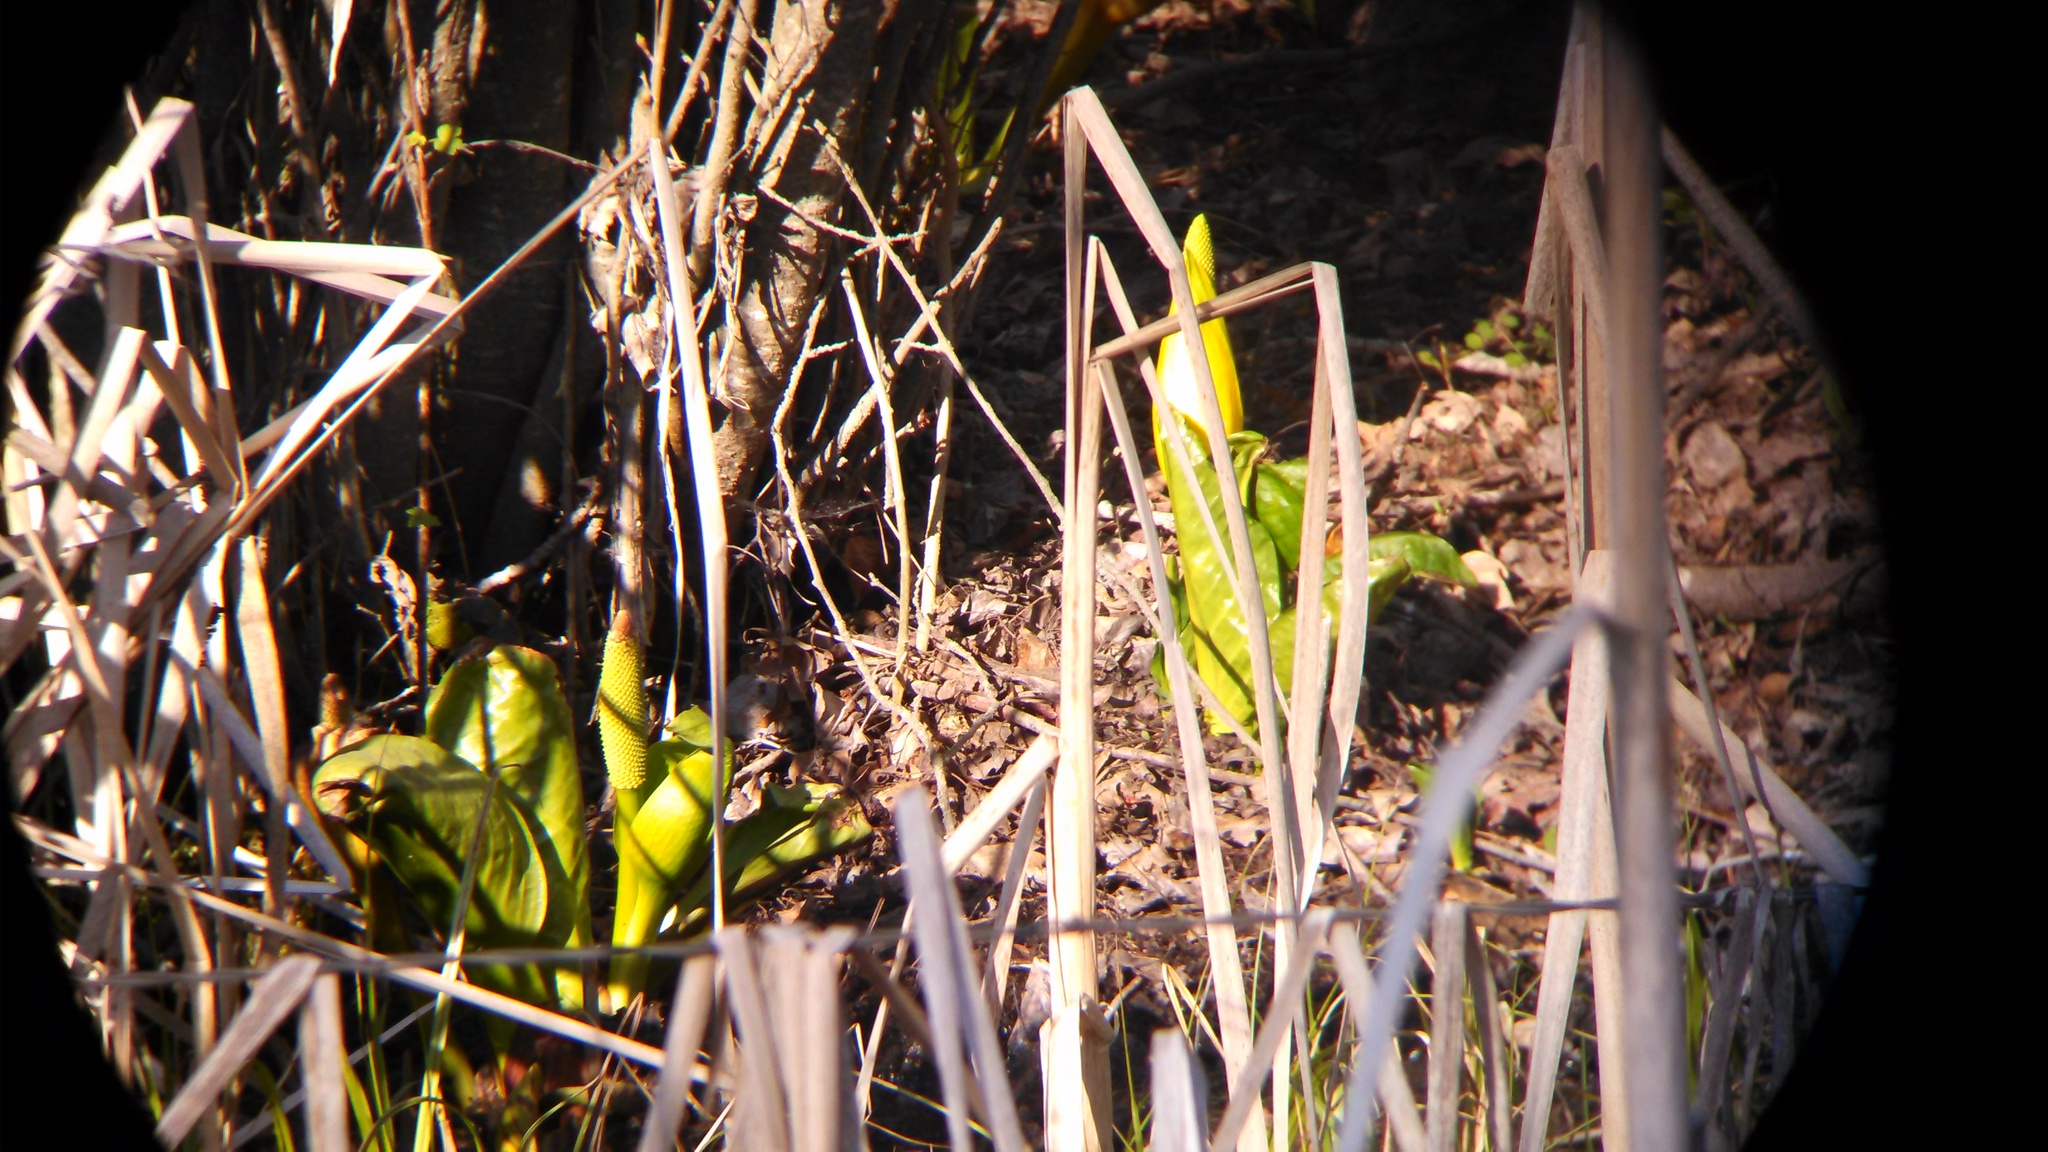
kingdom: Plantae
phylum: Tracheophyta
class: Liliopsida
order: Alismatales
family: Araceae
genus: Lysichiton
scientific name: Lysichiton americanus
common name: American skunk cabbage
